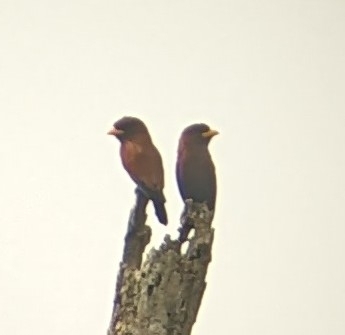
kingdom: Animalia
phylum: Chordata
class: Aves
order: Coraciiformes
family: Coraciidae
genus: Eurystomus
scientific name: Eurystomus gularis
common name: Blue-throated roller
